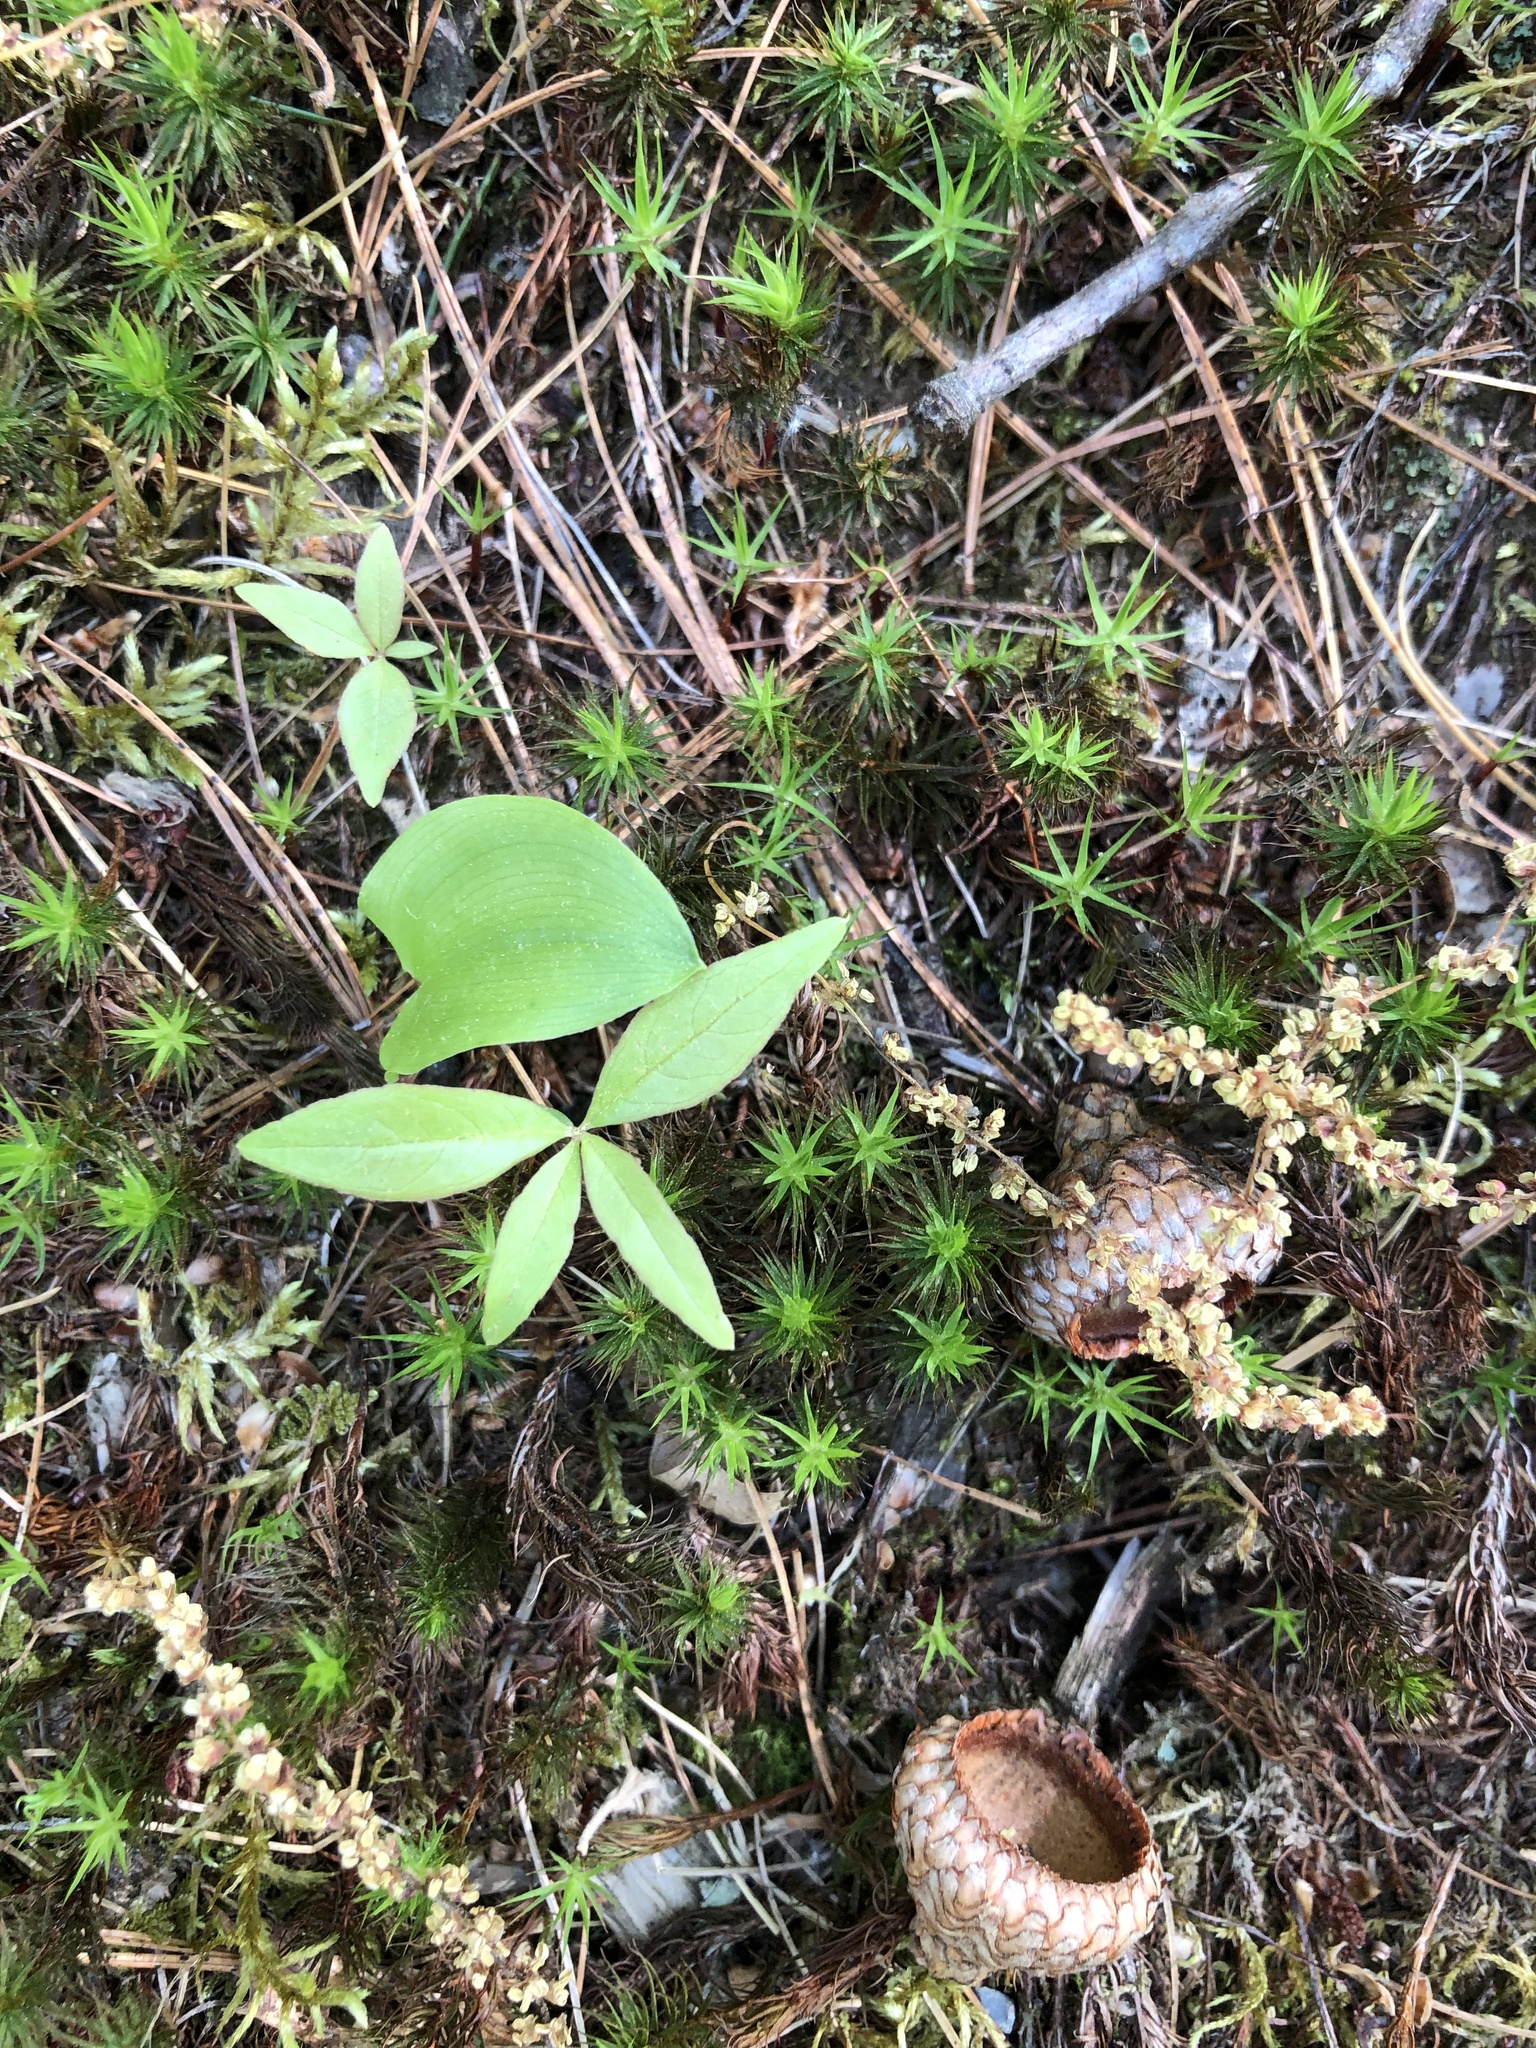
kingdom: Plantae
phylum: Tracheophyta
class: Magnoliopsida
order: Ericales
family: Primulaceae
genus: Lysimachia
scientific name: Lysimachia borealis
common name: American starflower
